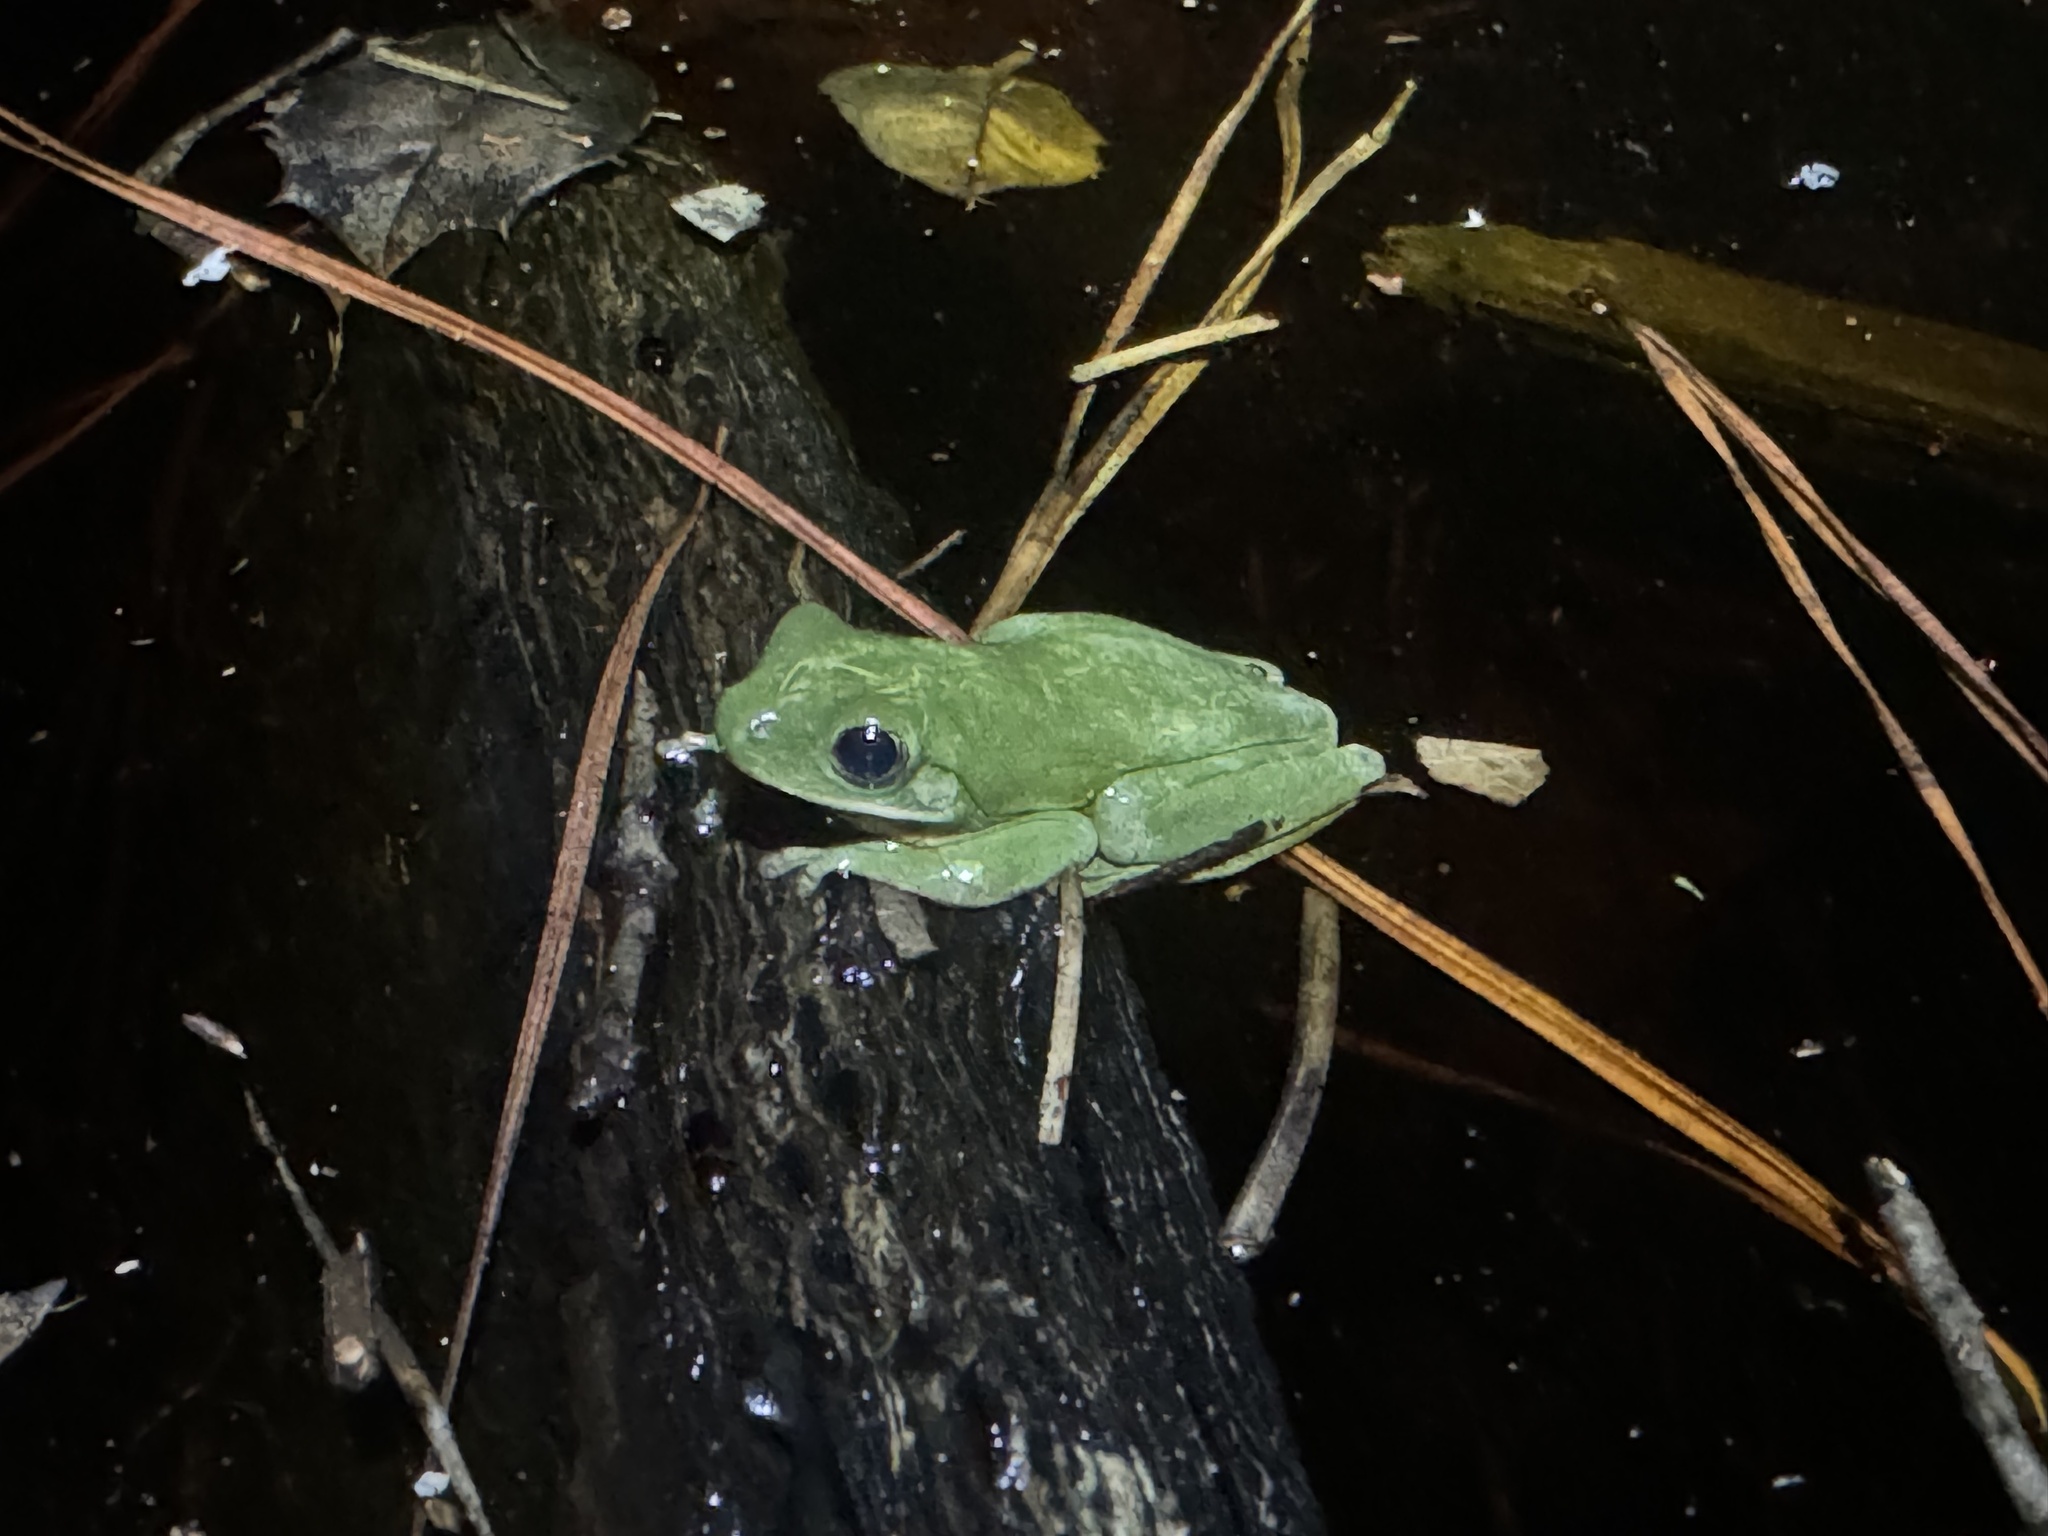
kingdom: Animalia
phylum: Chordata
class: Amphibia
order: Anura
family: Hylidae
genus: Dryophytes
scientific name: Dryophytes cinereus
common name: Green treefrog
